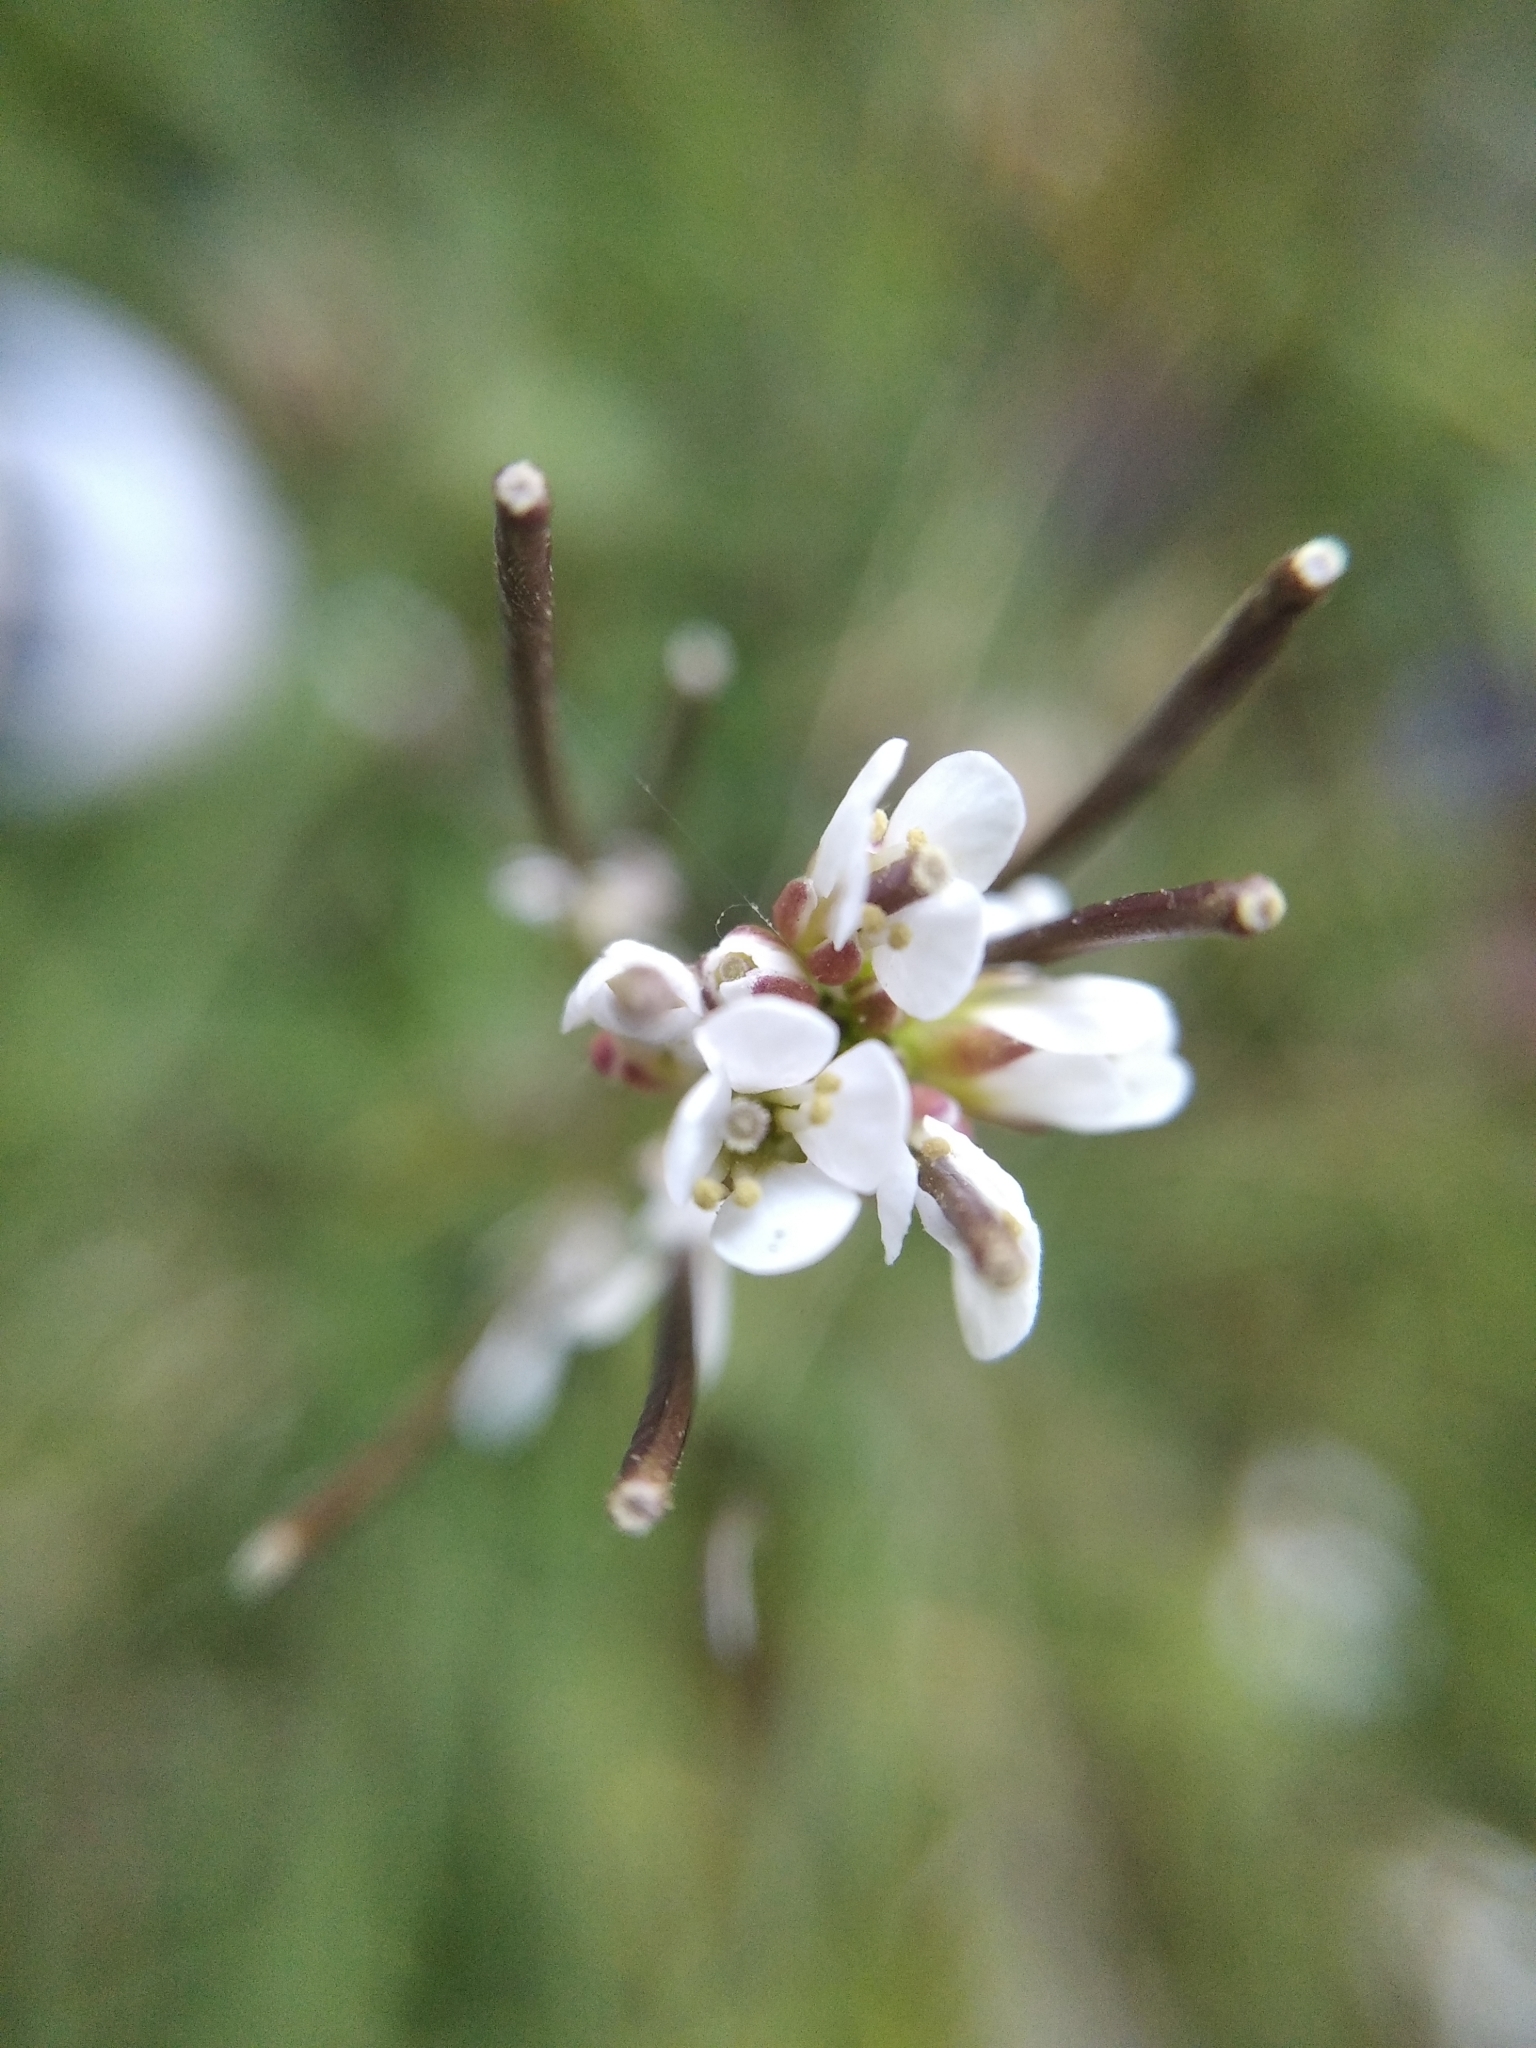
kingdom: Plantae
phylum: Tracheophyta
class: Magnoliopsida
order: Brassicales
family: Brassicaceae
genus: Cardamine
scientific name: Cardamine hirsuta
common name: Hairy bittercress
